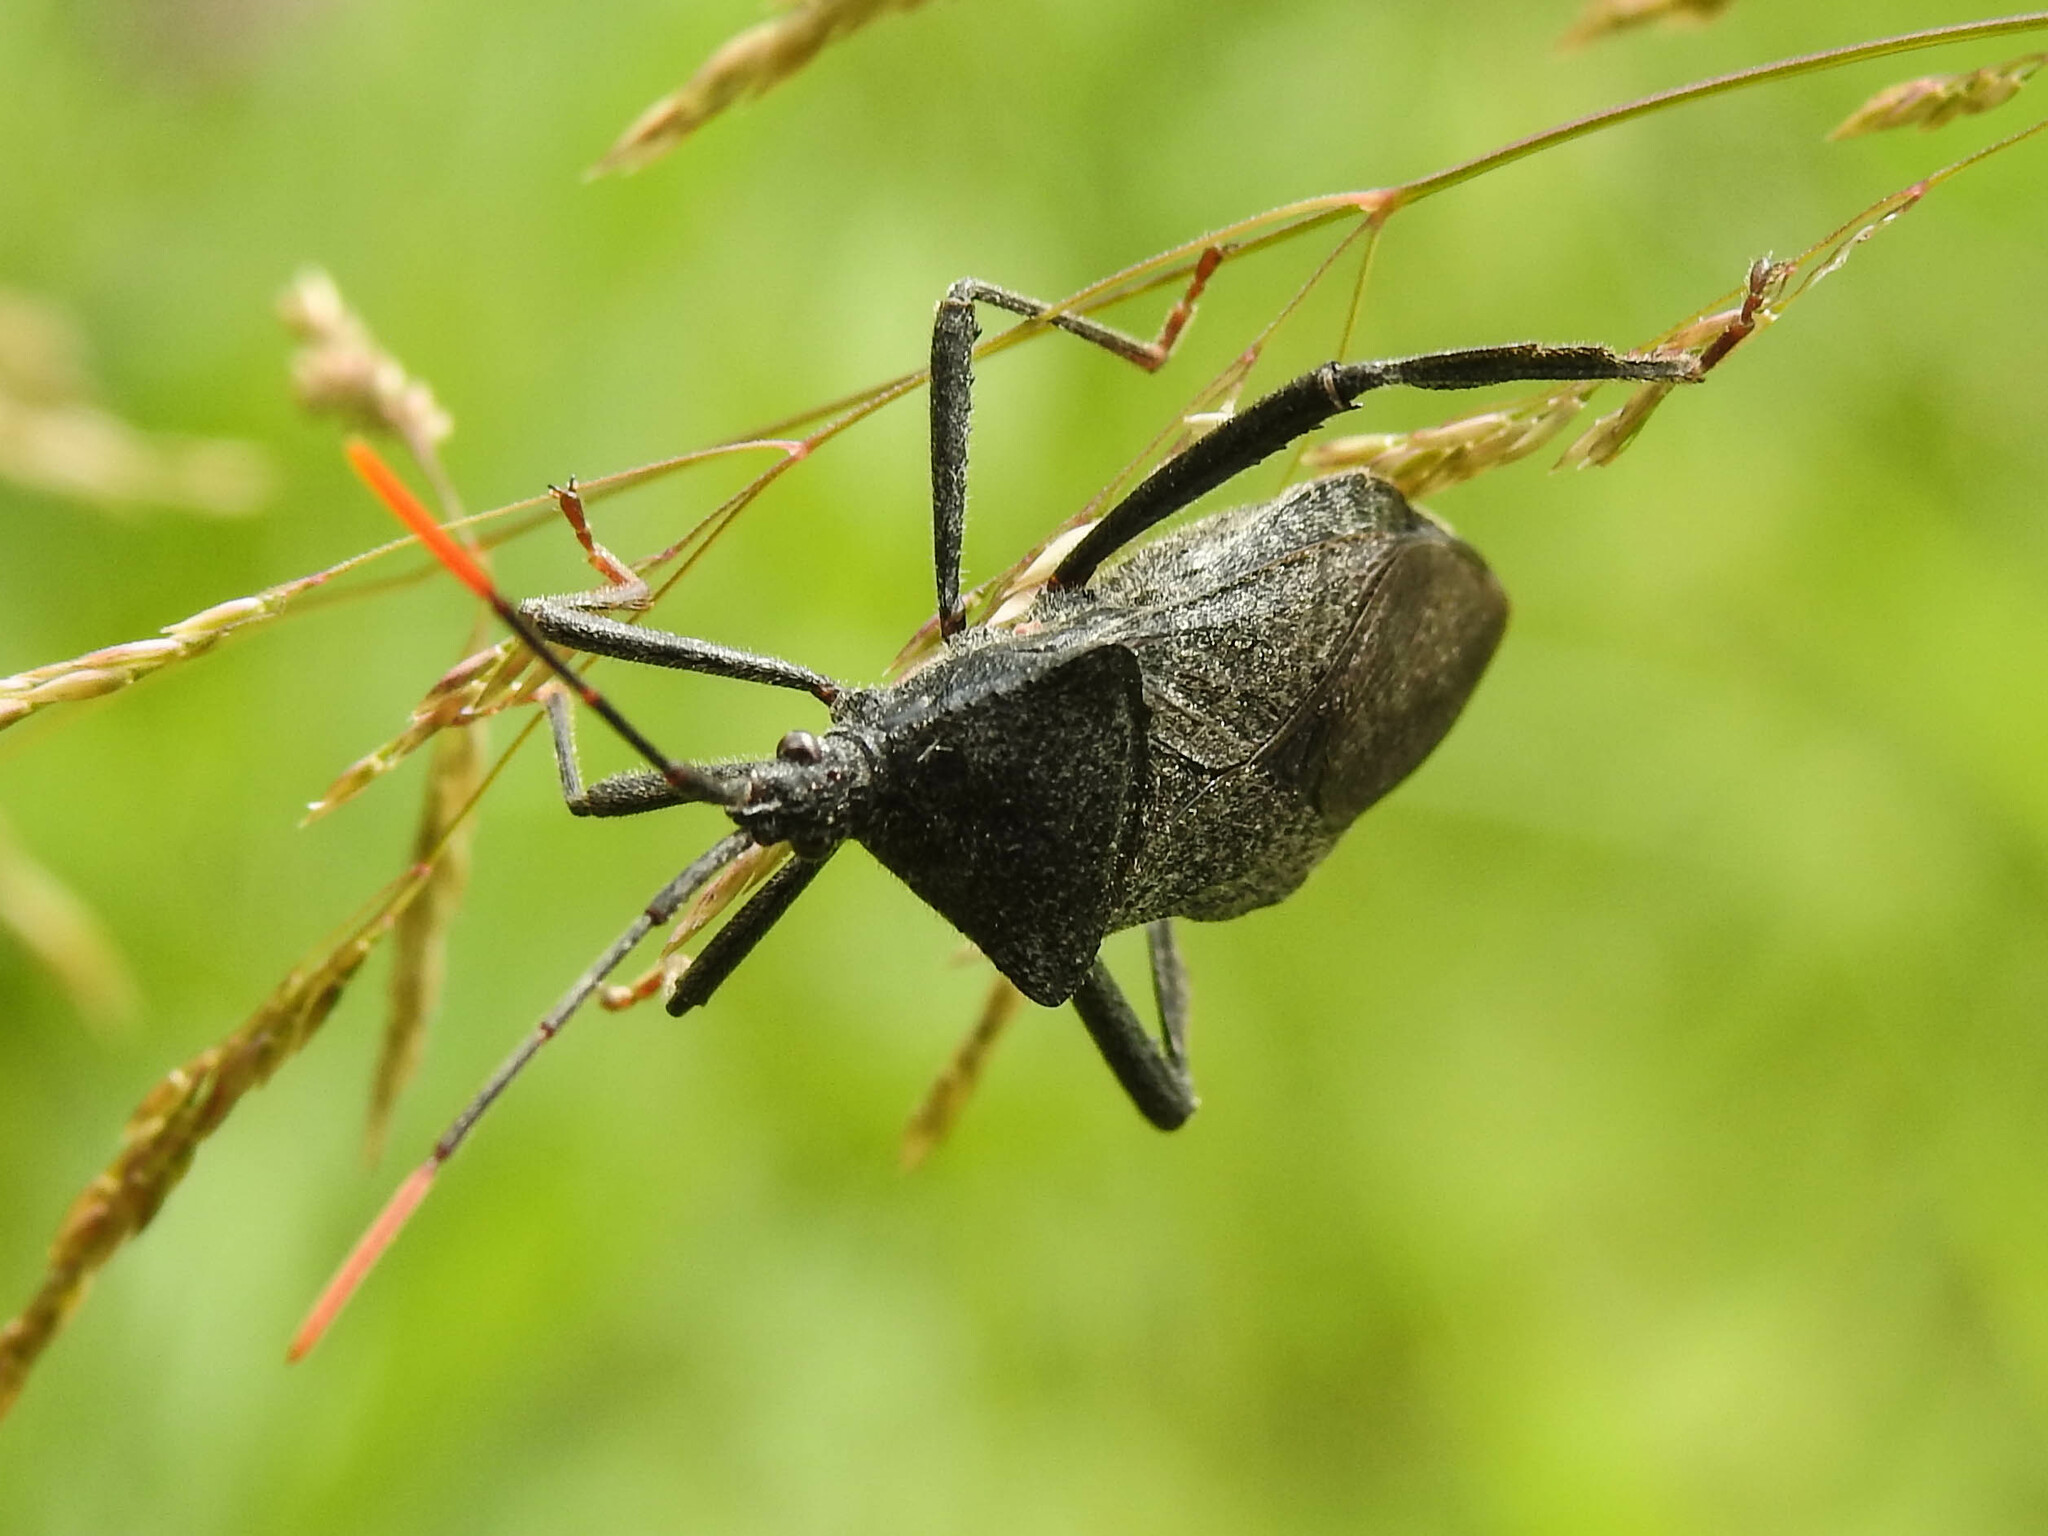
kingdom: Animalia
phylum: Arthropoda
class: Insecta
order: Hemiptera
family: Coreidae
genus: Acanthocephala
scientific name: Acanthocephala terminalis
